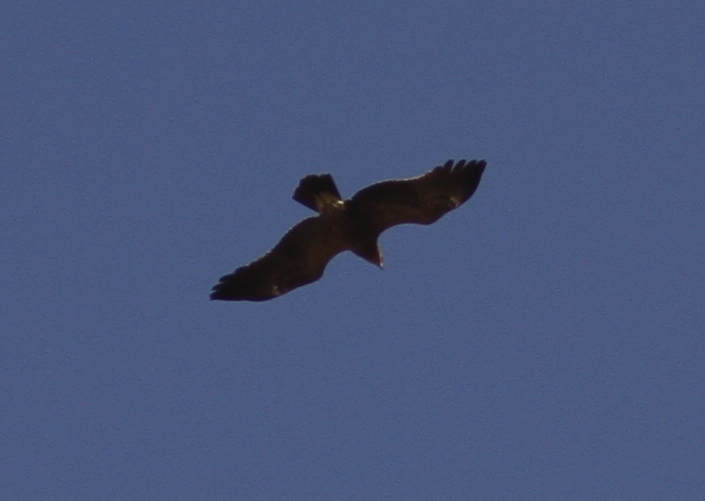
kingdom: Animalia
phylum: Chordata
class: Aves
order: Accipitriformes
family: Accipitridae
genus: Aquila
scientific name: Aquila pomarina
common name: Lesser spotted eagle
